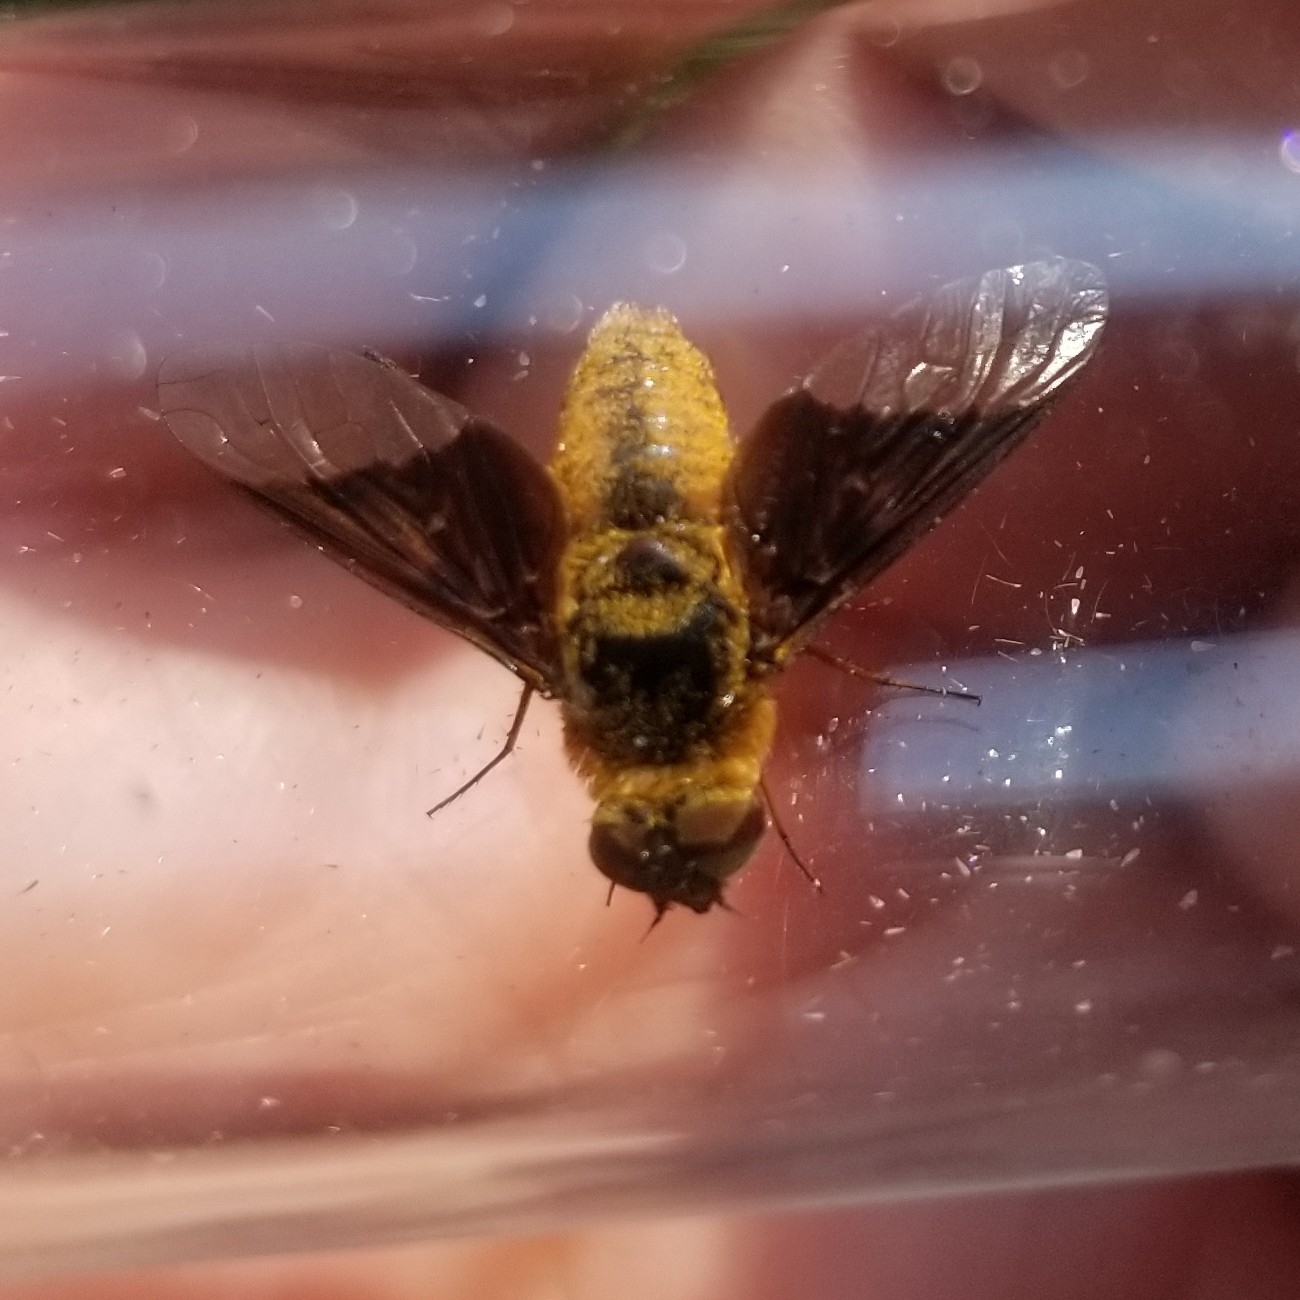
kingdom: Animalia
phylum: Arthropoda
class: Insecta
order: Diptera
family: Bombyliidae
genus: Chrysanthrax
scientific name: Chrysanthrax cypris
